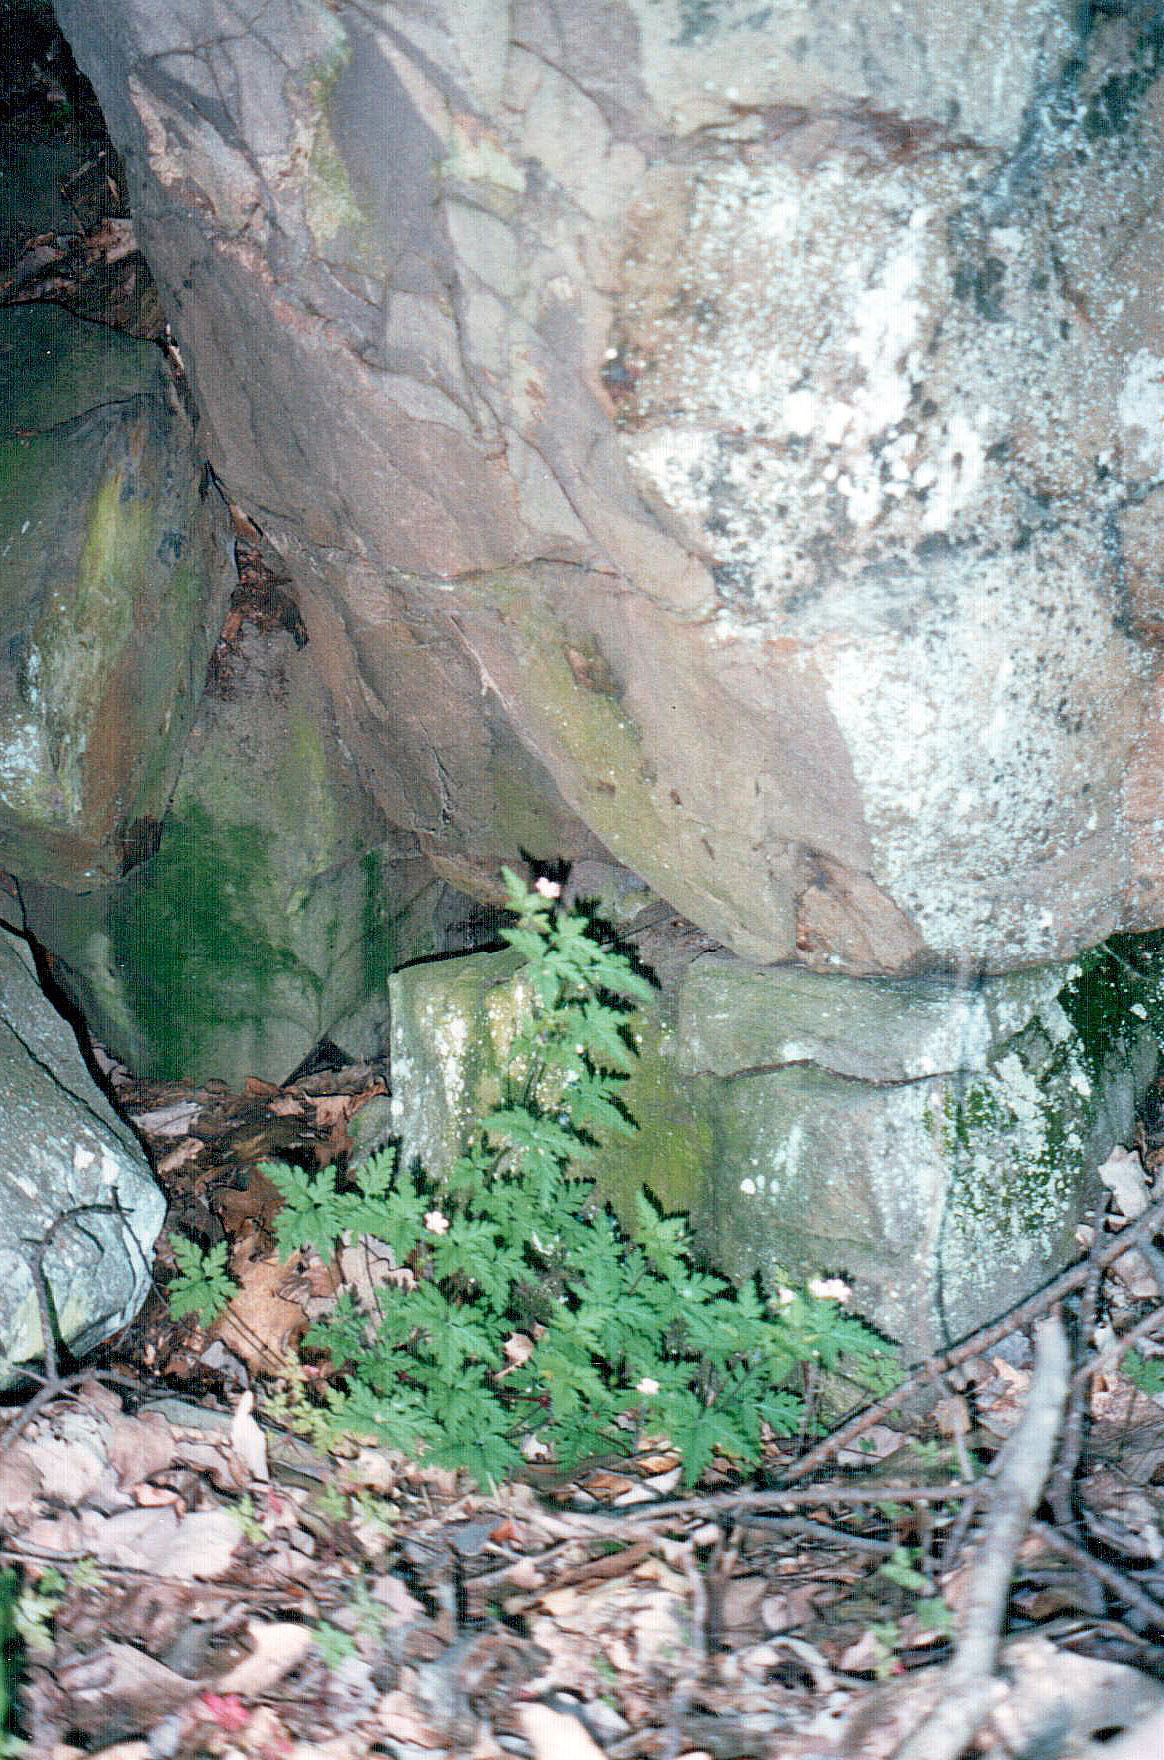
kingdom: Plantae
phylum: Tracheophyta
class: Magnoliopsida
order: Geraniales
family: Geraniaceae
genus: Geranium
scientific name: Geranium robertianum
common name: Herb-robert
